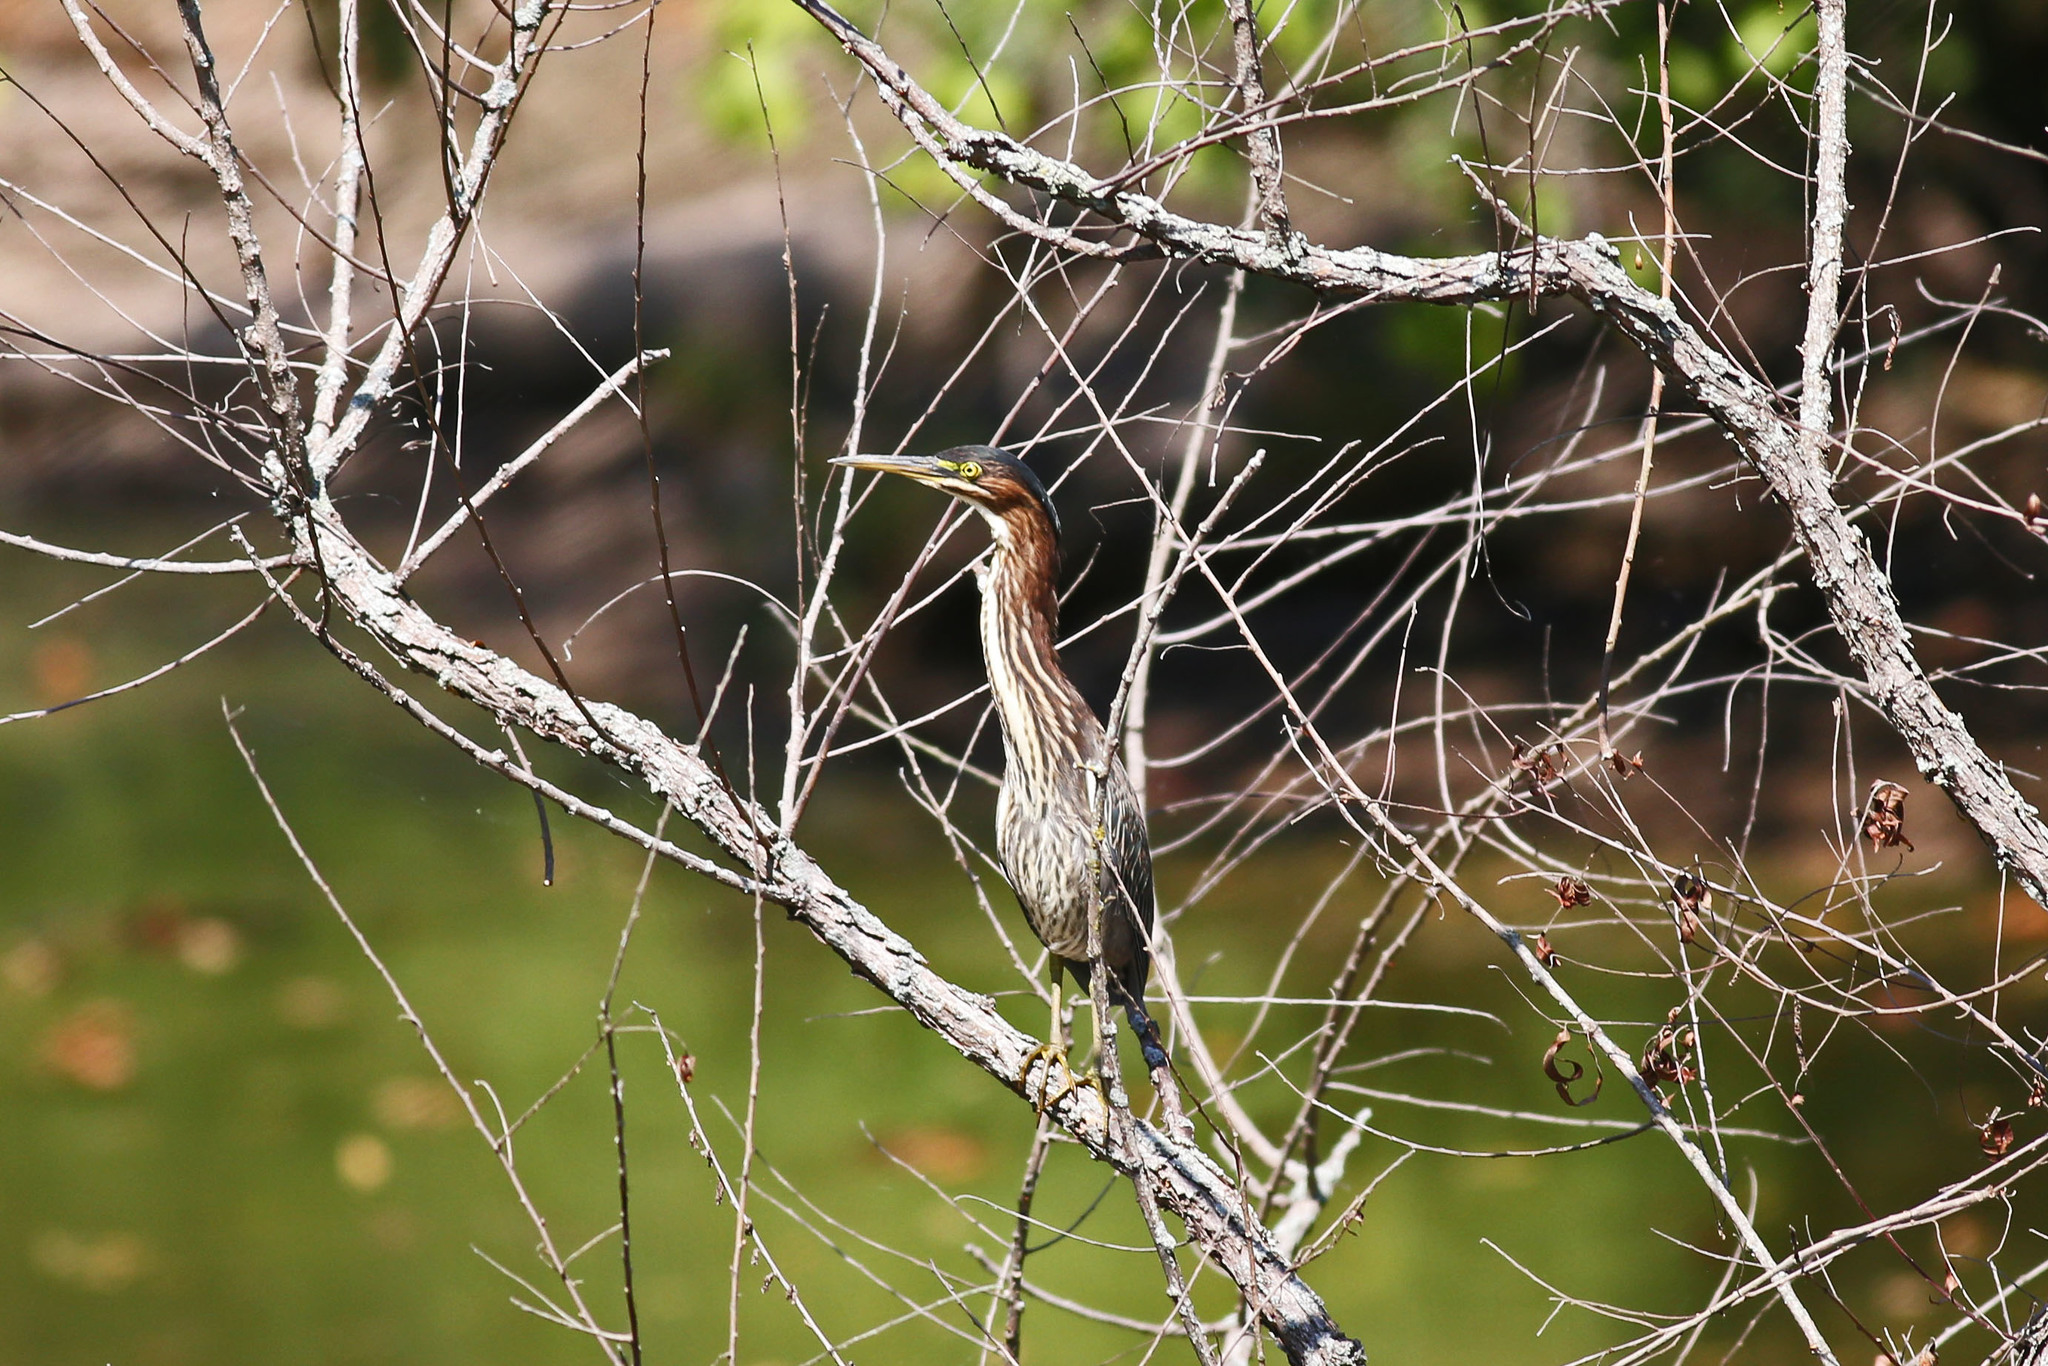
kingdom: Animalia
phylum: Chordata
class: Aves
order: Pelecaniformes
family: Ardeidae
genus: Butorides
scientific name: Butorides virescens
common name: Green heron
